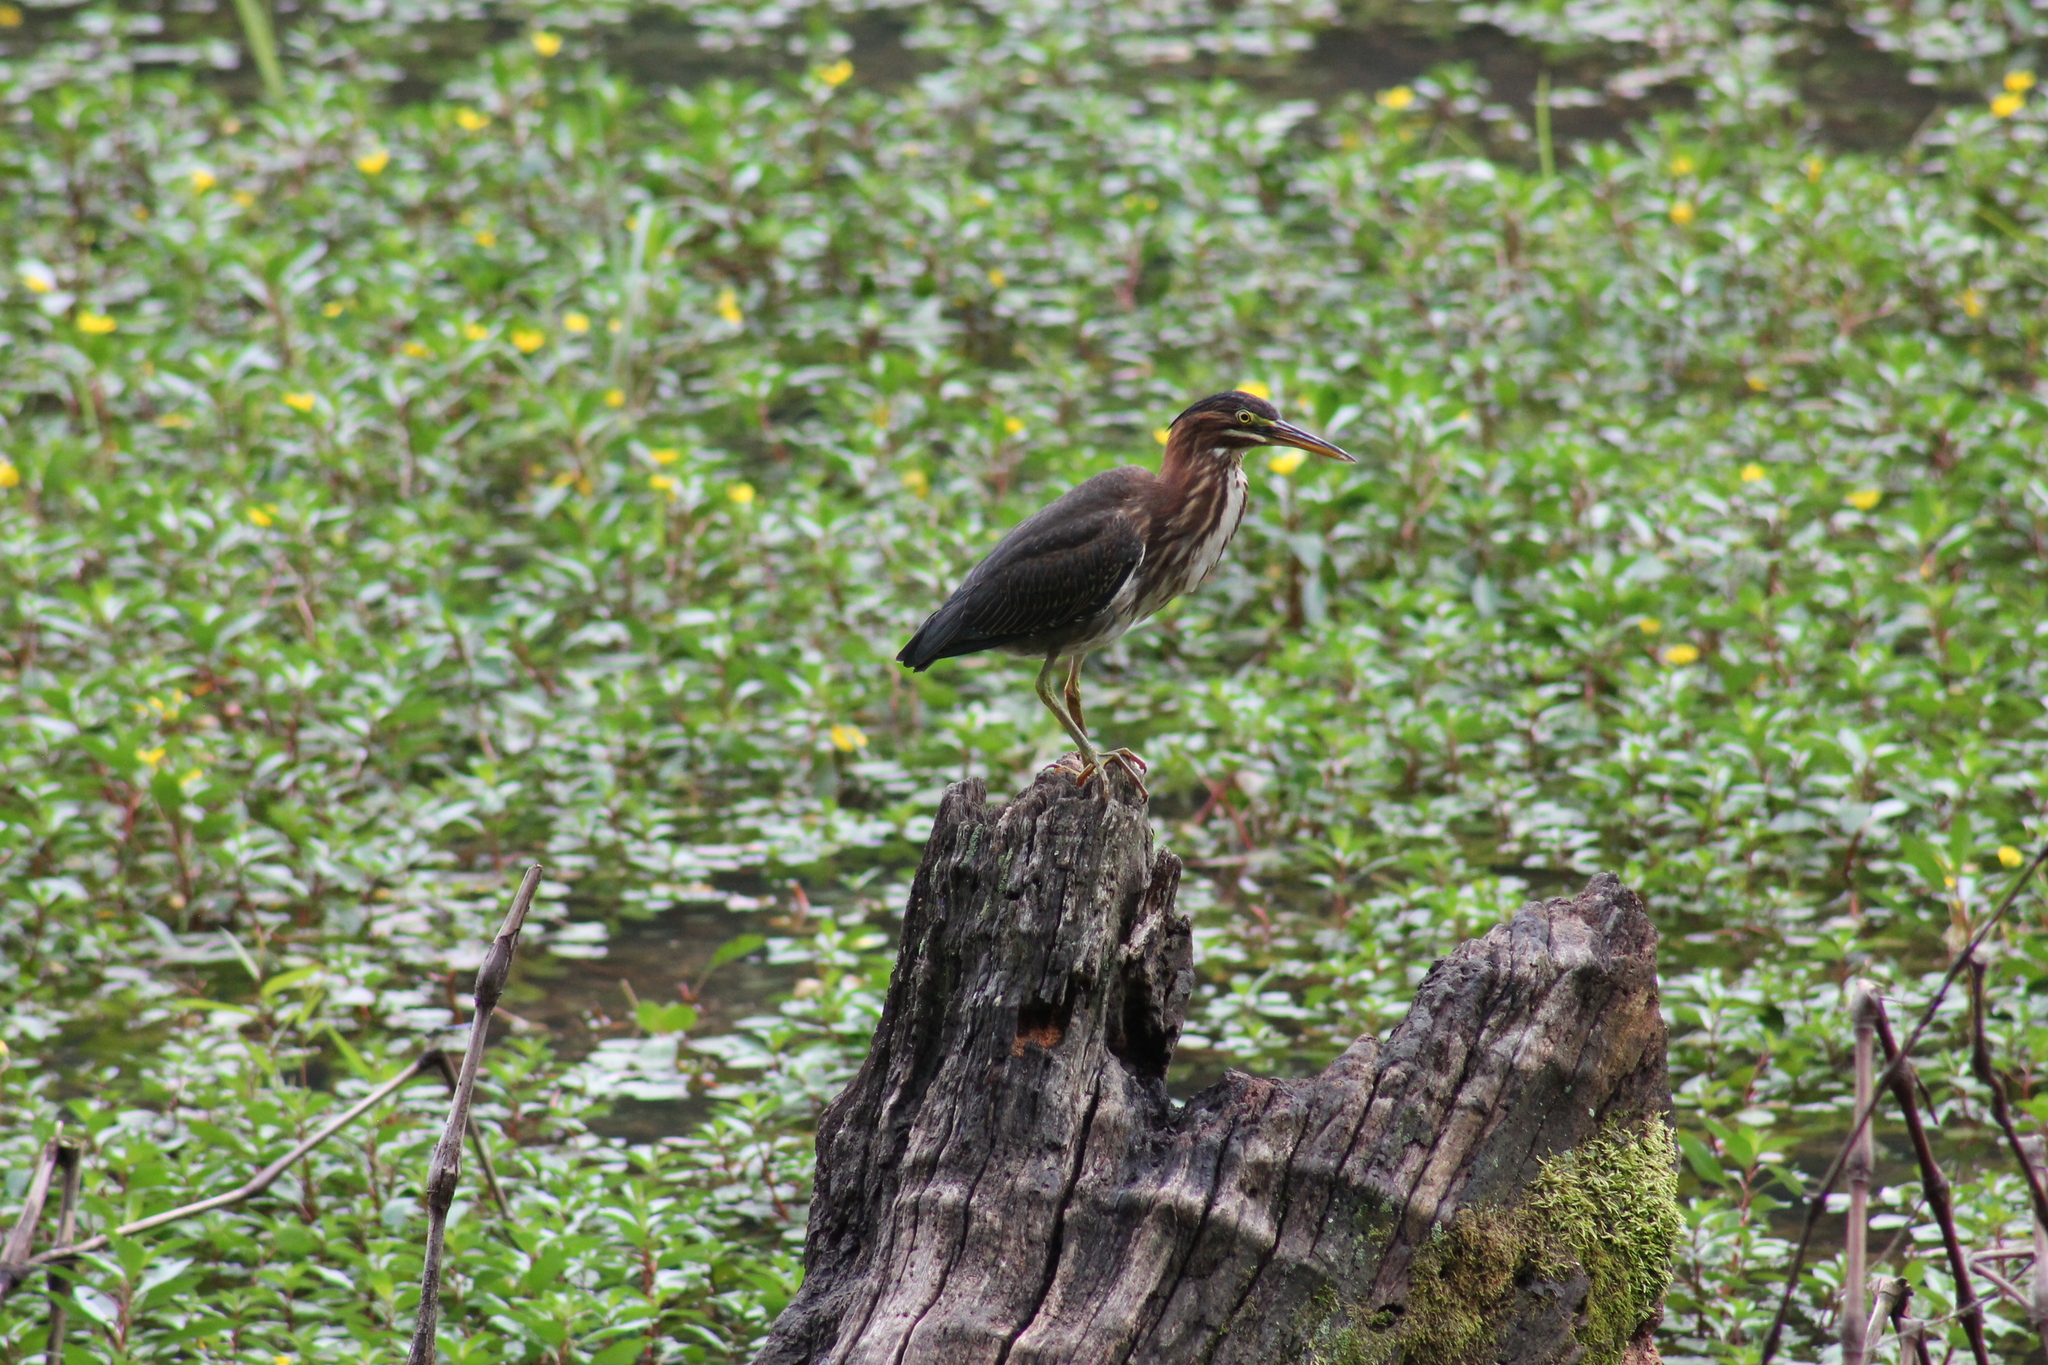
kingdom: Animalia
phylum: Chordata
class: Aves
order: Pelecaniformes
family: Ardeidae
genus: Butorides
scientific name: Butorides virescens
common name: Green heron
